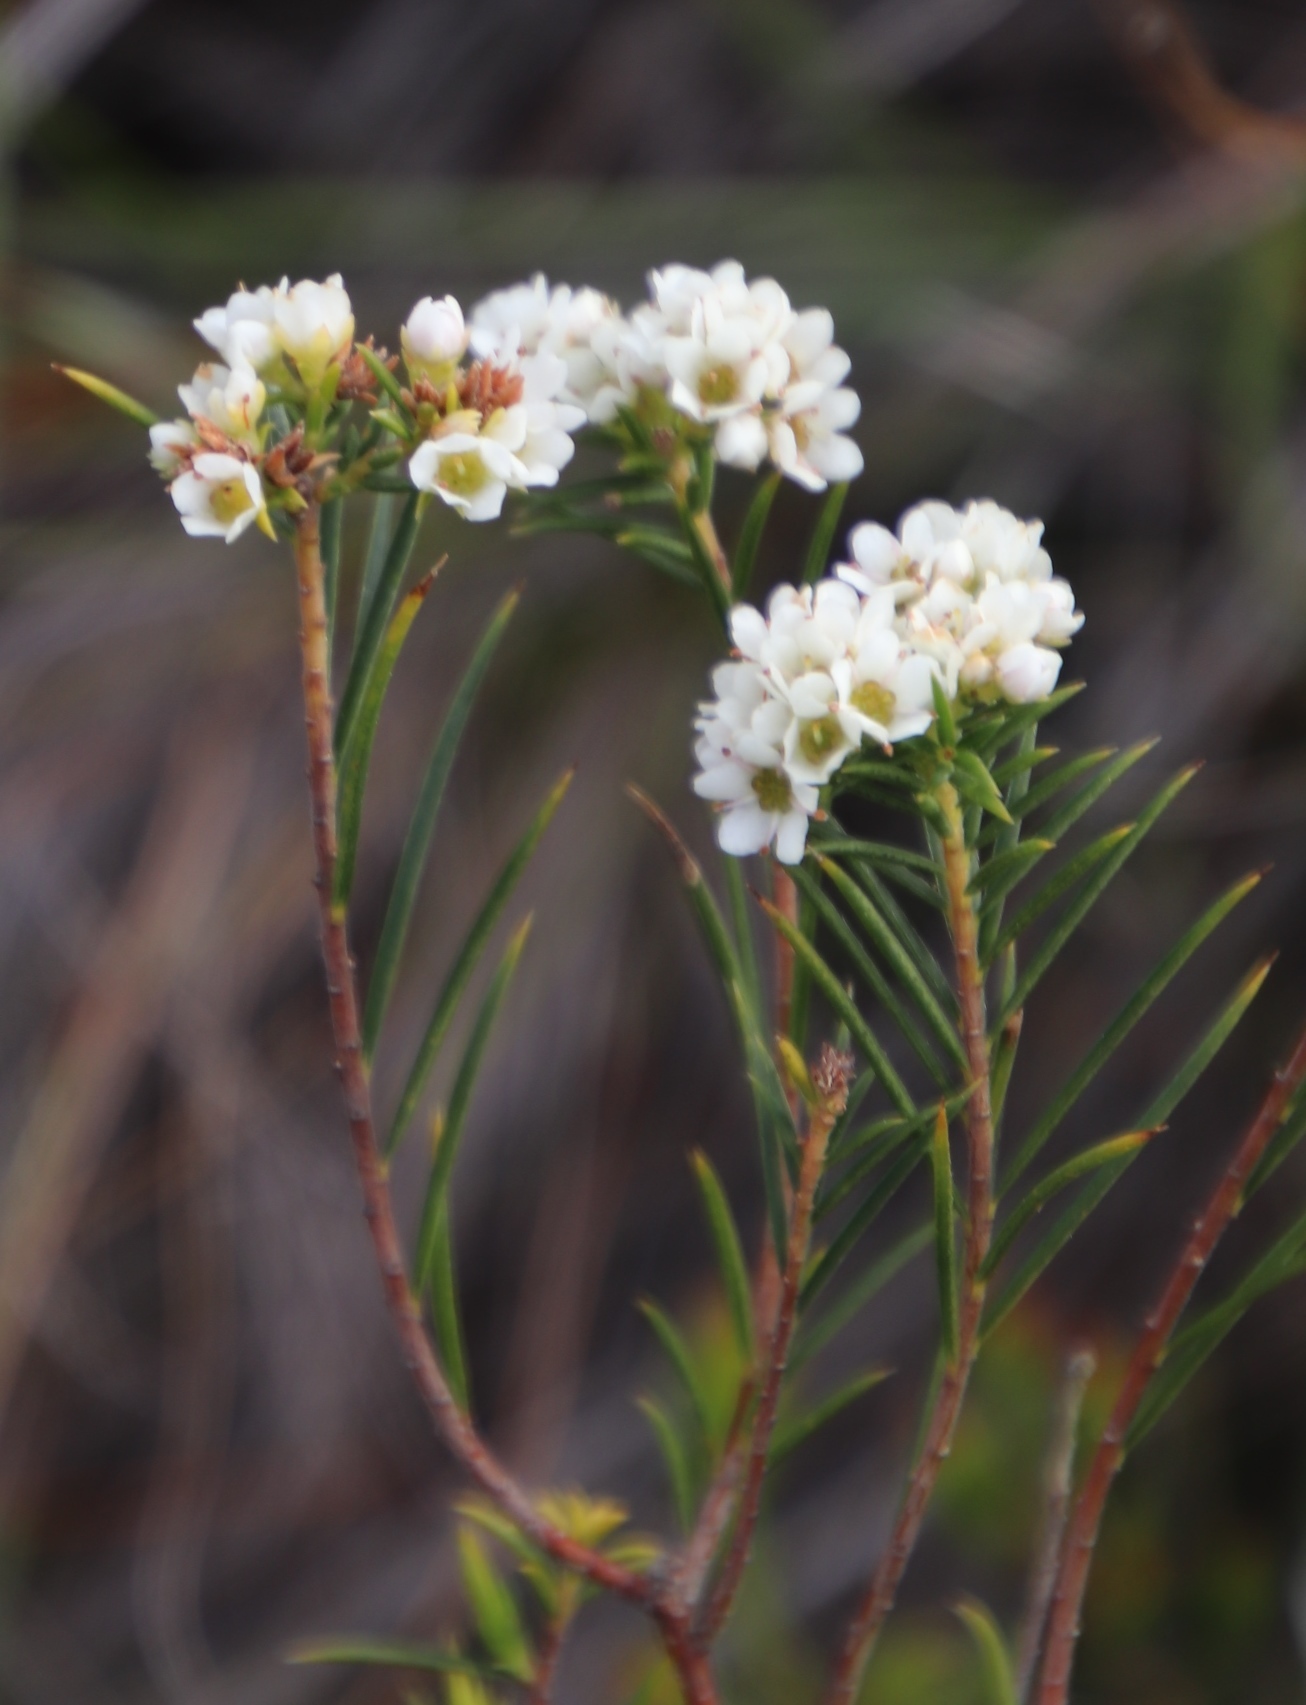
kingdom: Plantae
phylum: Tracheophyta
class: Magnoliopsida
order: Sapindales
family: Rutaceae
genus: Diosma
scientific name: Diosma hirsuta
